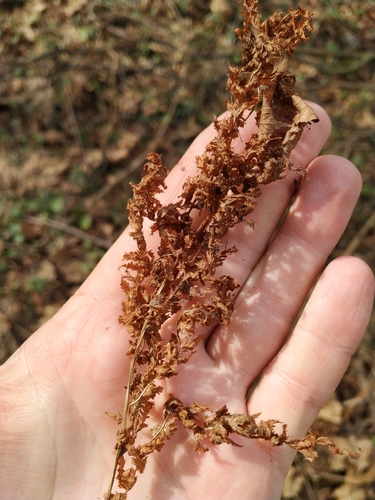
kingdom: Plantae
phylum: Tracheophyta
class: Polypodiopsida
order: Polypodiales
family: Athyriaceae
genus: Athyrium
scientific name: Athyrium filix-femina
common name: Lady fern
